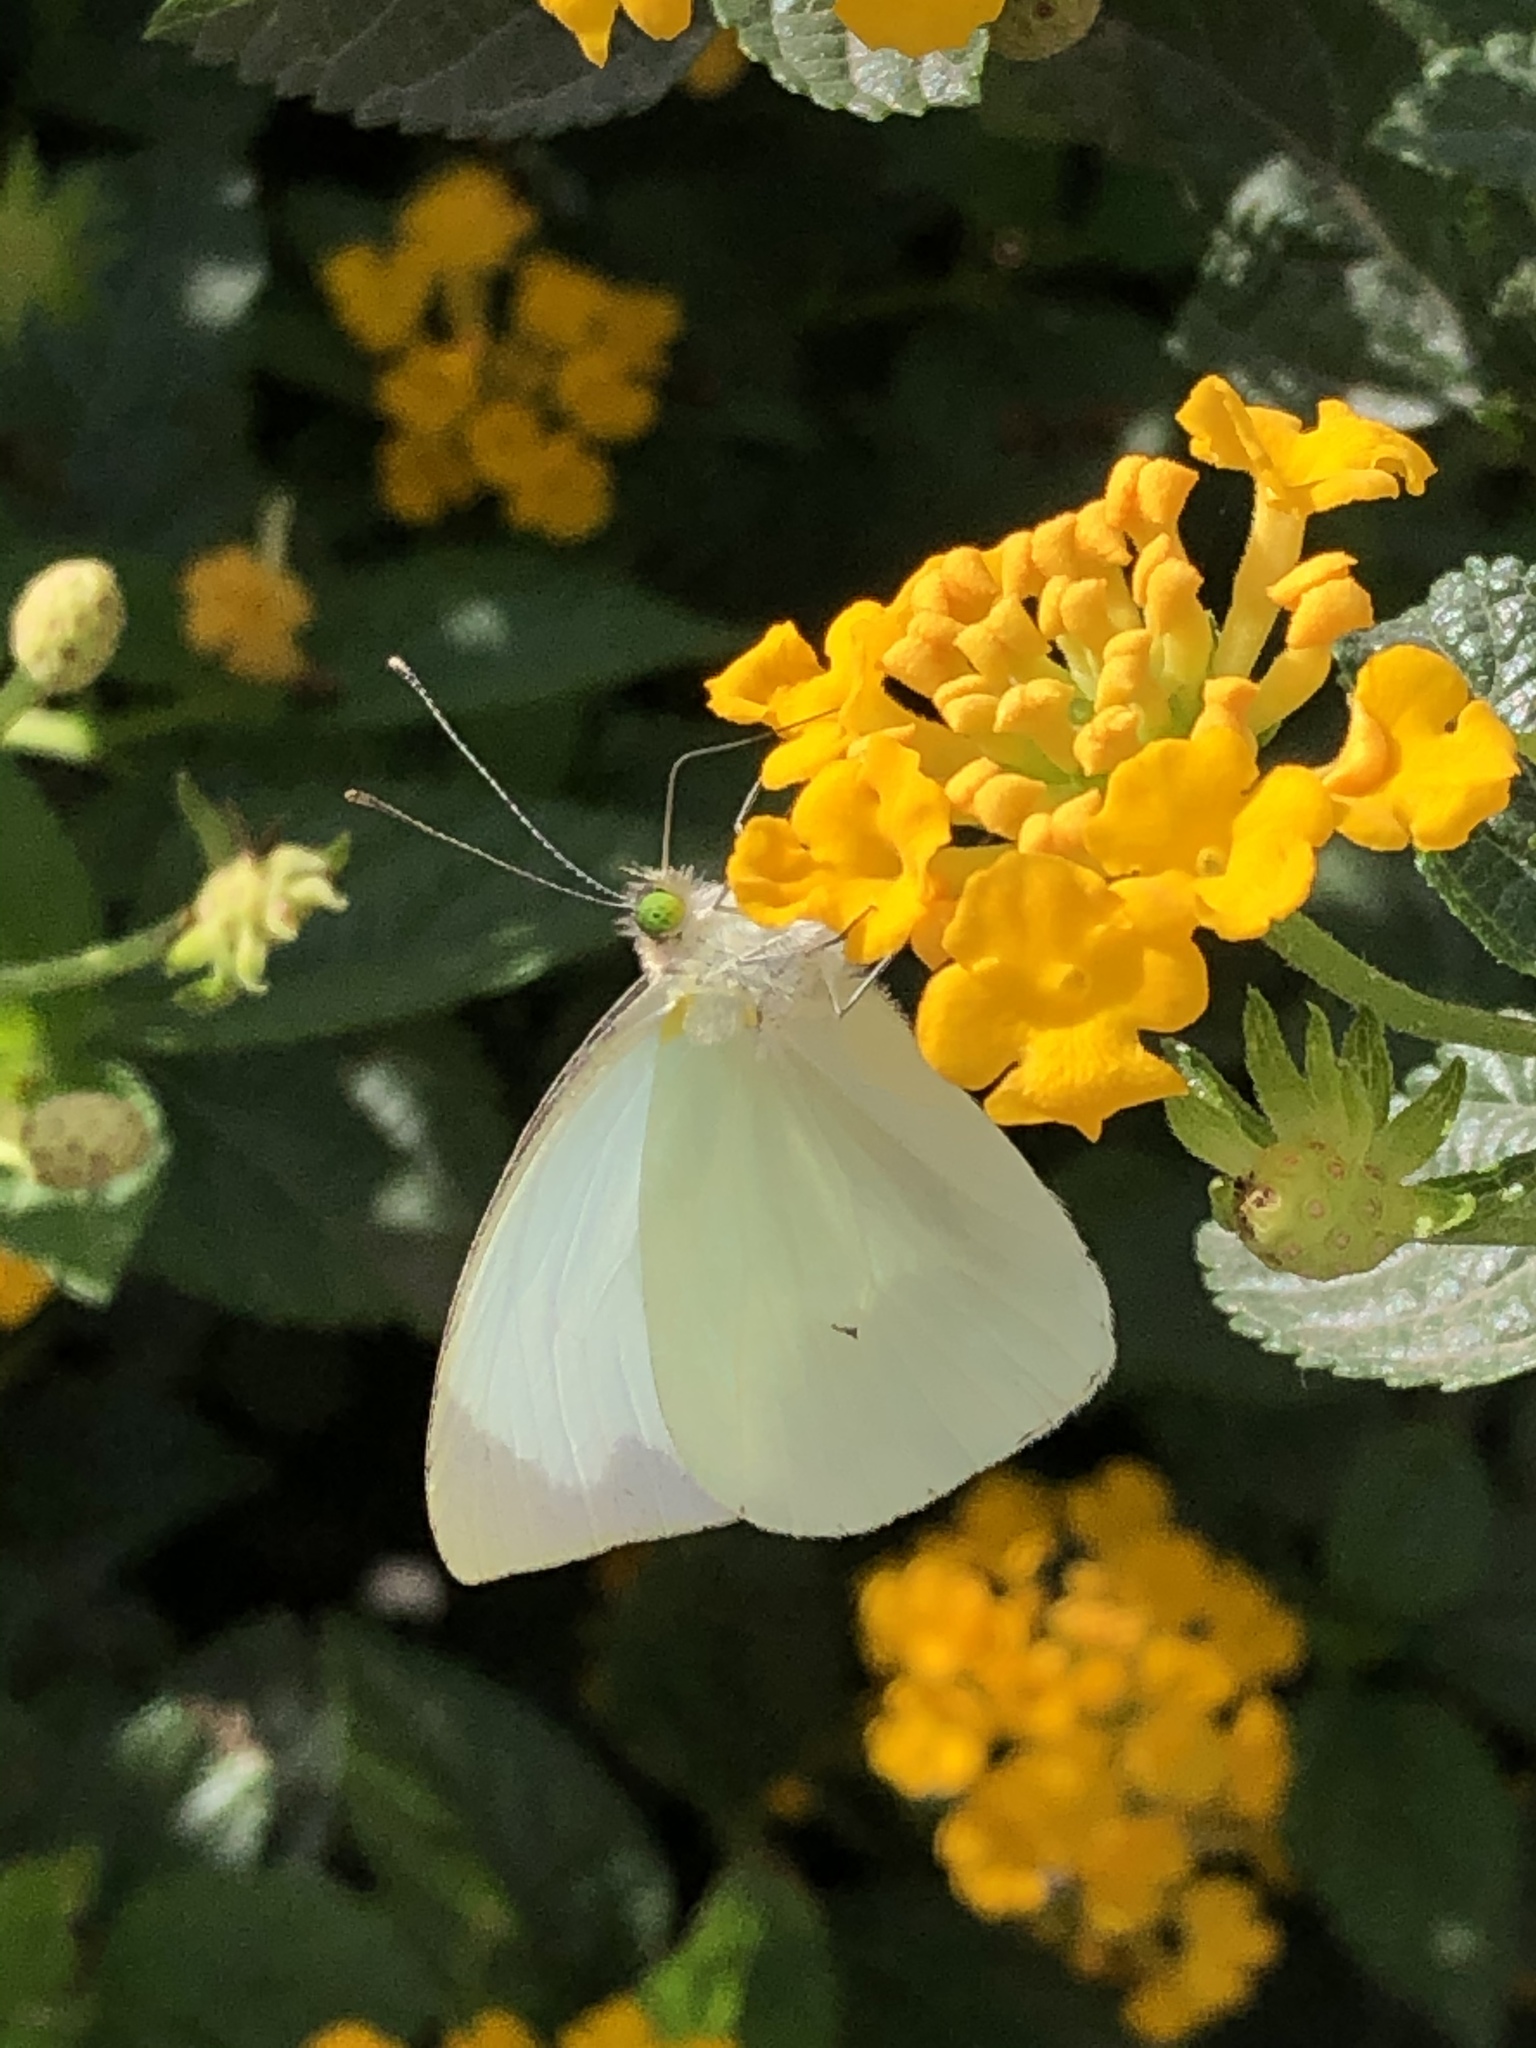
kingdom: Animalia
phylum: Arthropoda
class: Insecta
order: Lepidoptera
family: Pieridae
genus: Leptophobia
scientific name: Leptophobia aripa
